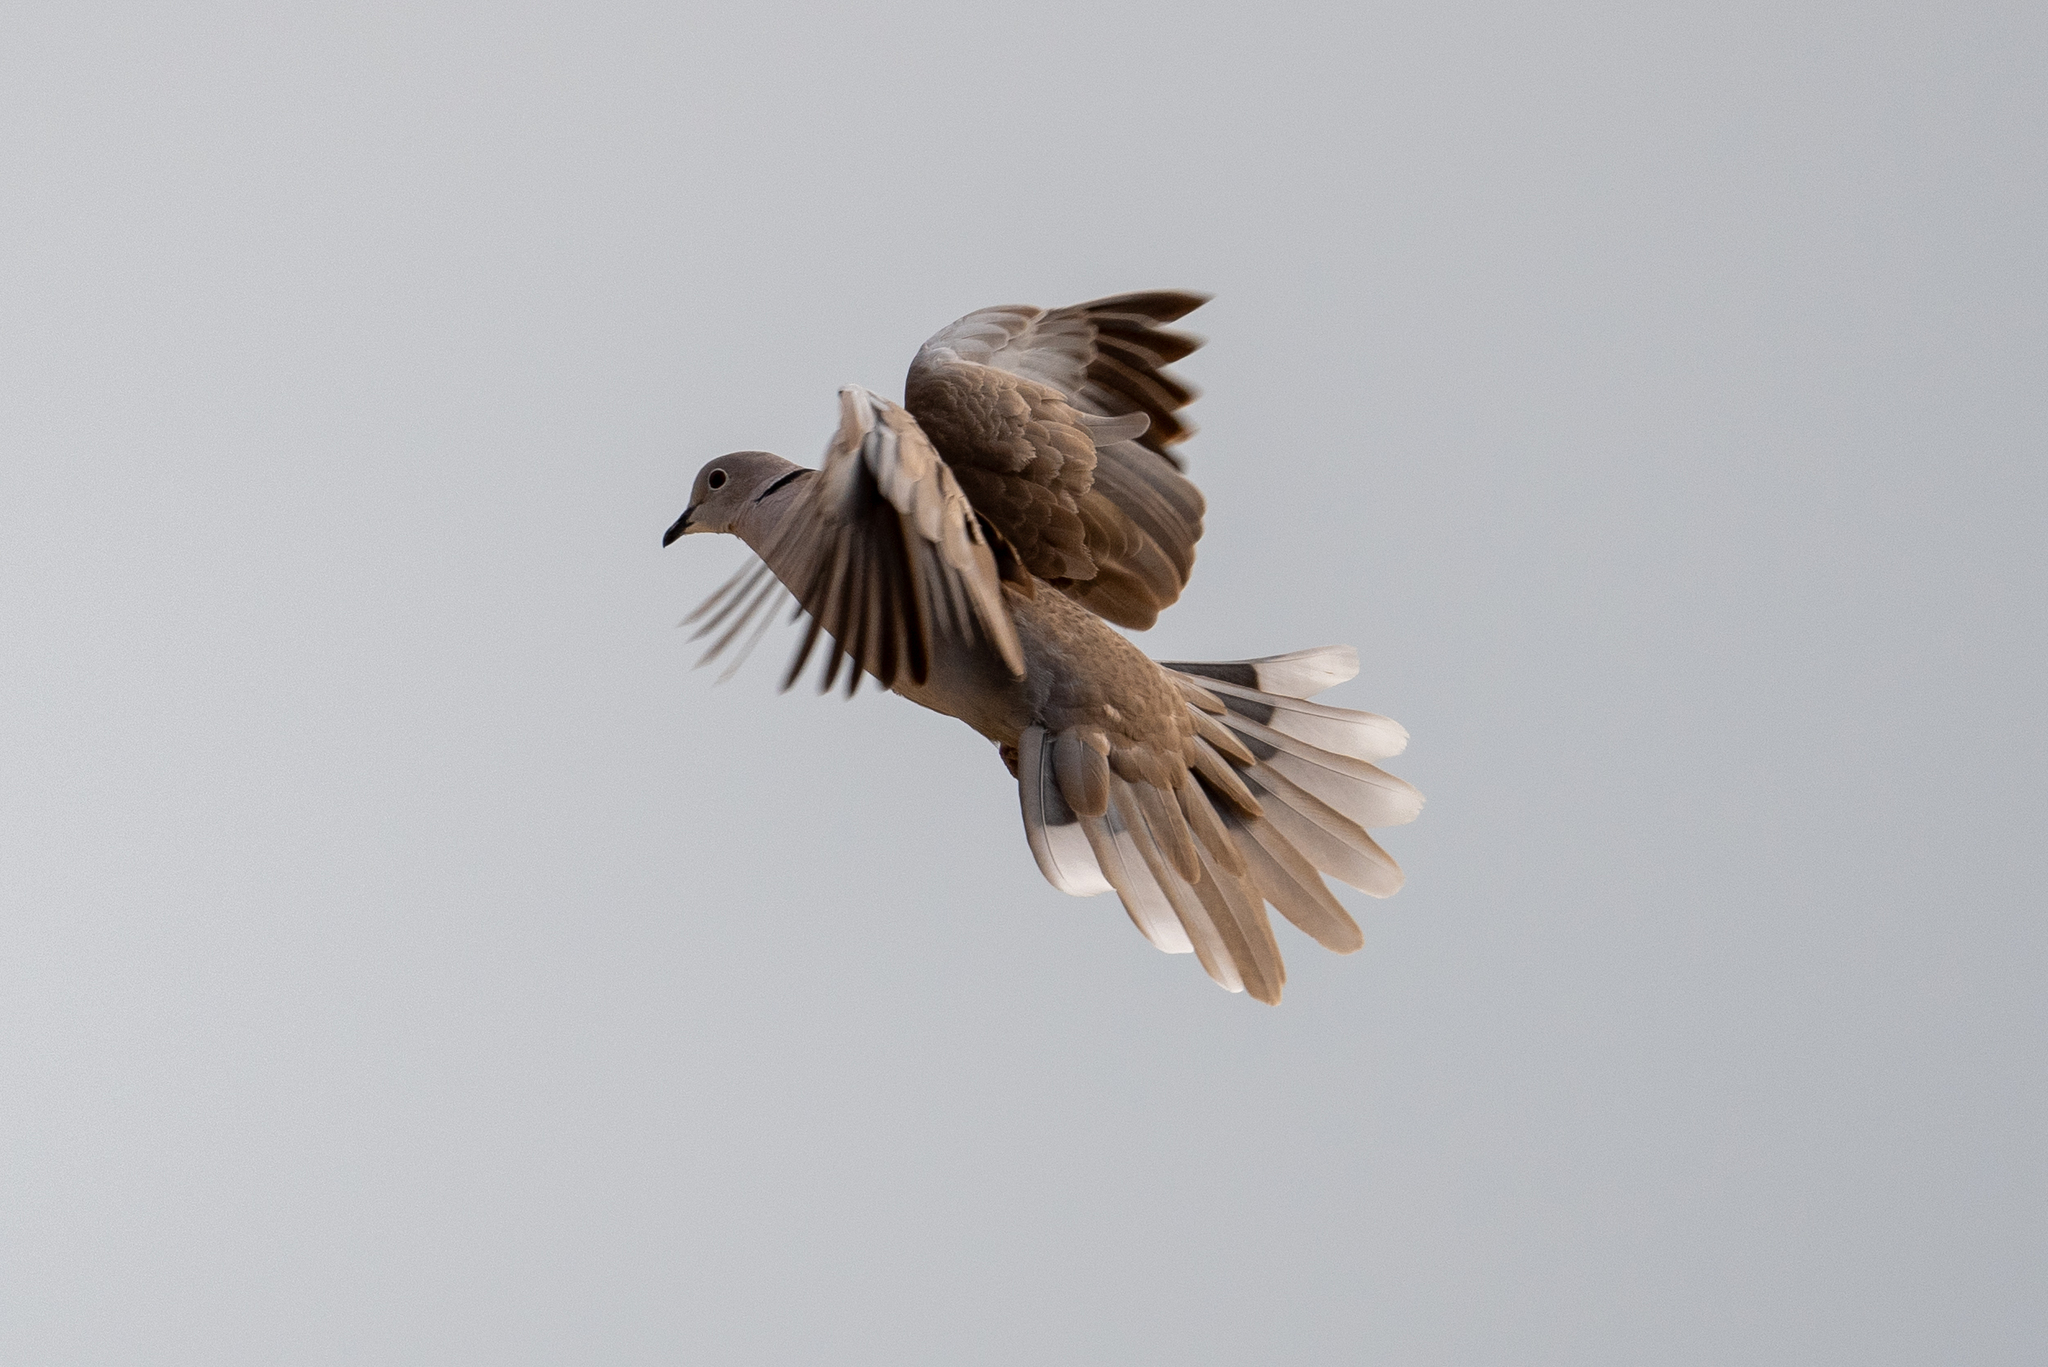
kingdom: Animalia
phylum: Chordata
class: Aves
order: Columbiformes
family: Columbidae
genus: Streptopelia
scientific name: Streptopelia decaocto
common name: Eurasian collared dove
